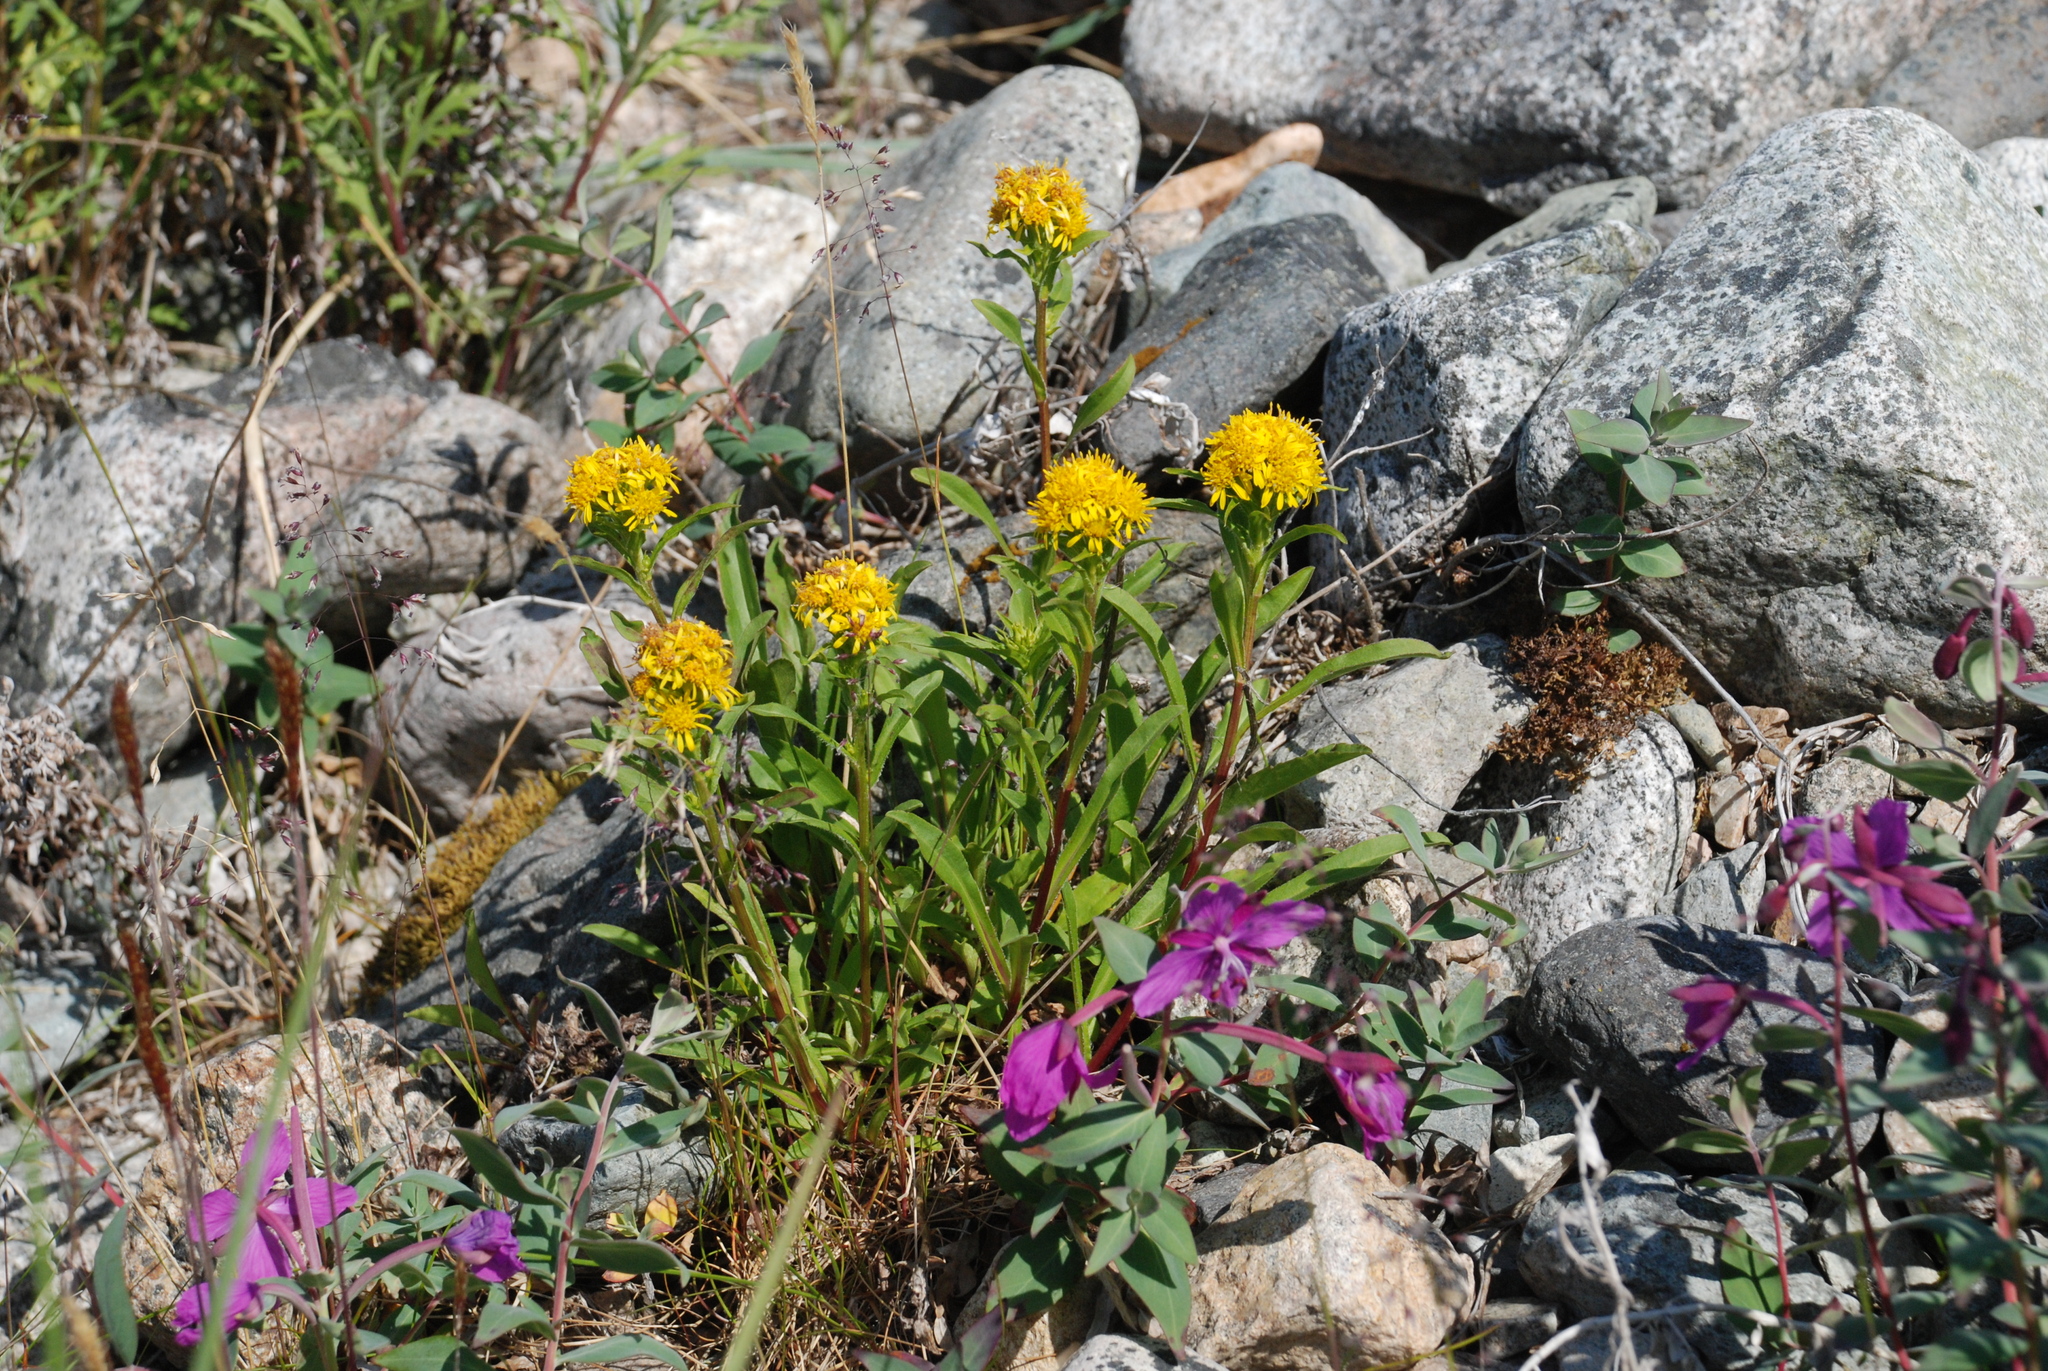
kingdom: Plantae
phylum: Tracheophyta
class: Magnoliopsida
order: Asterales
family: Asteraceae
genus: Solidago
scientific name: Solidago compacta
